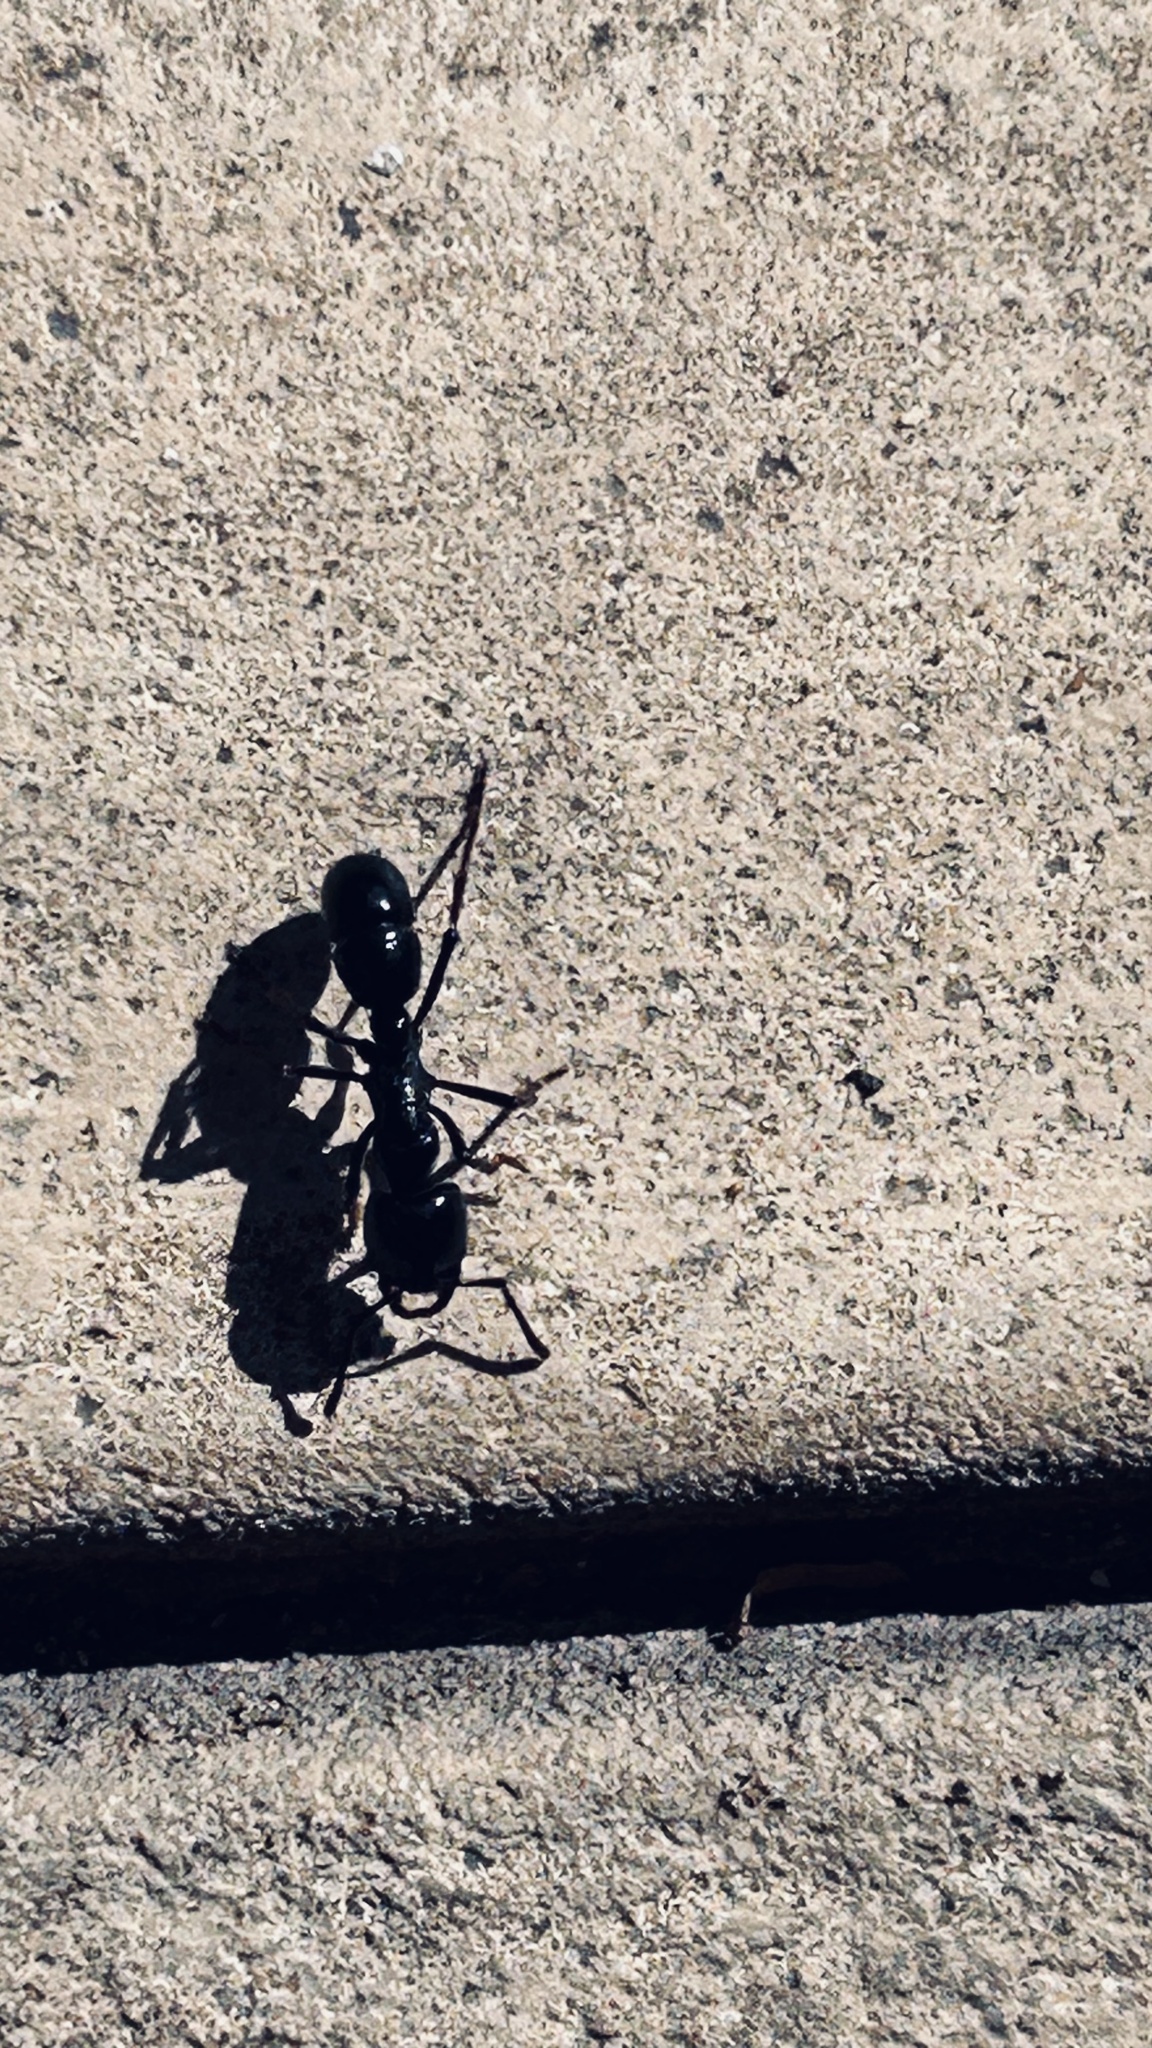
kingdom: Animalia
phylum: Arthropoda
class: Insecta
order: Hymenoptera
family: Formicidae
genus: Plectroctena
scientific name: Plectroctena mandibularis
